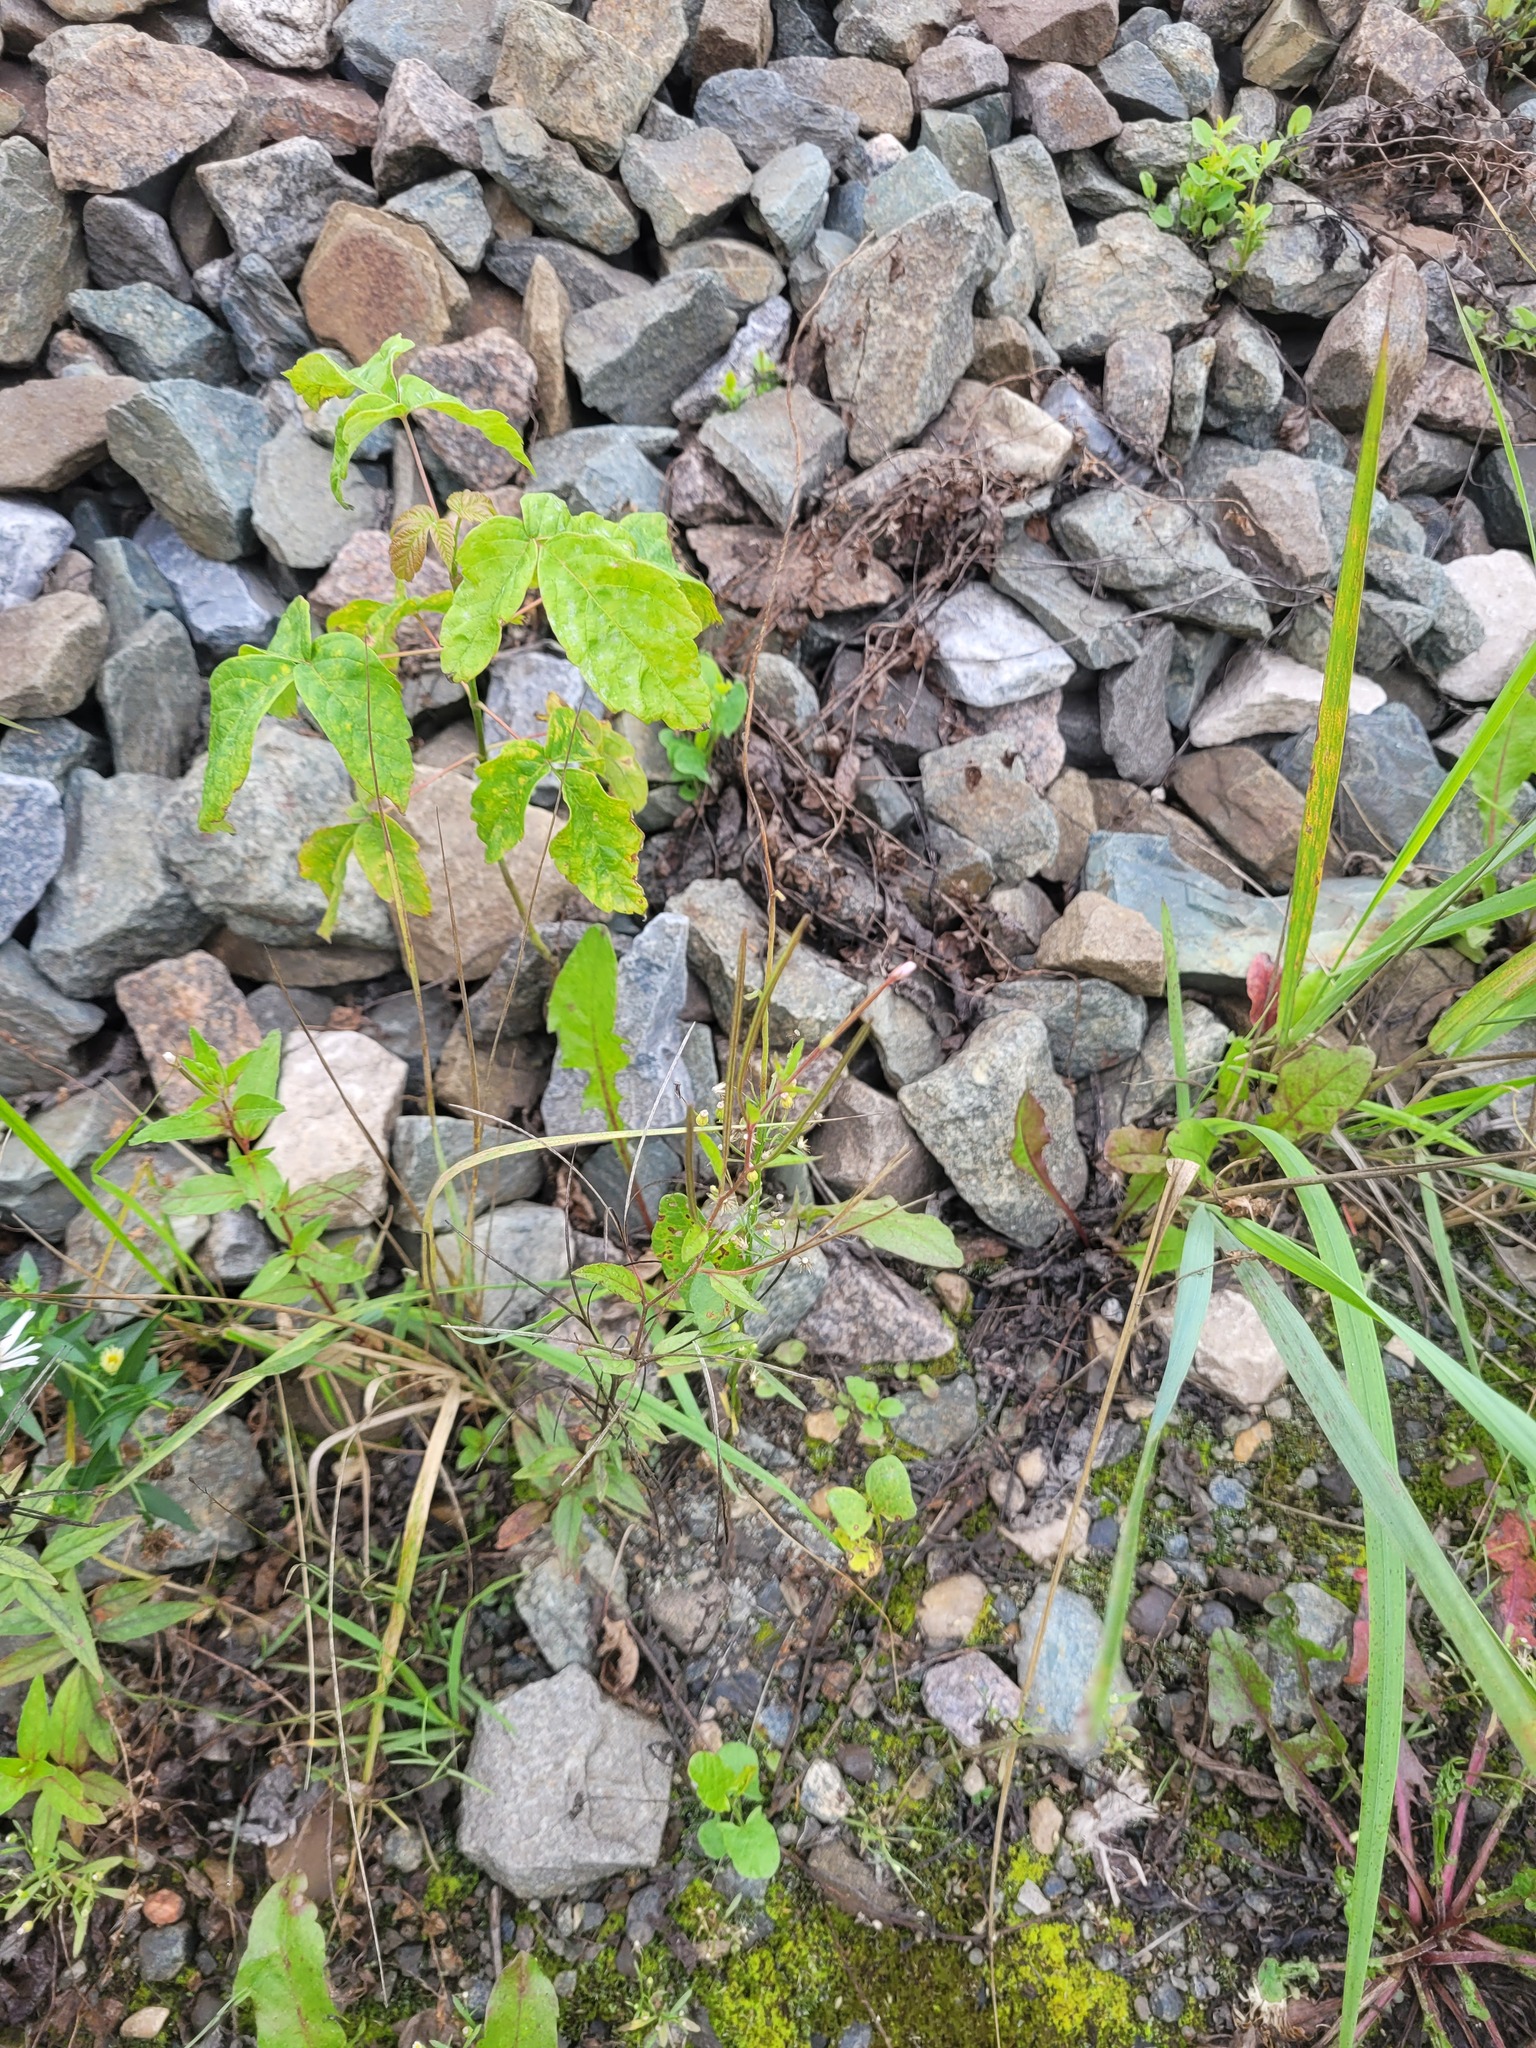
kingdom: Plantae
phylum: Tracheophyta
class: Magnoliopsida
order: Myrtales
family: Onagraceae
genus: Epilobium
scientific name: Epilobium pseudorubescens
